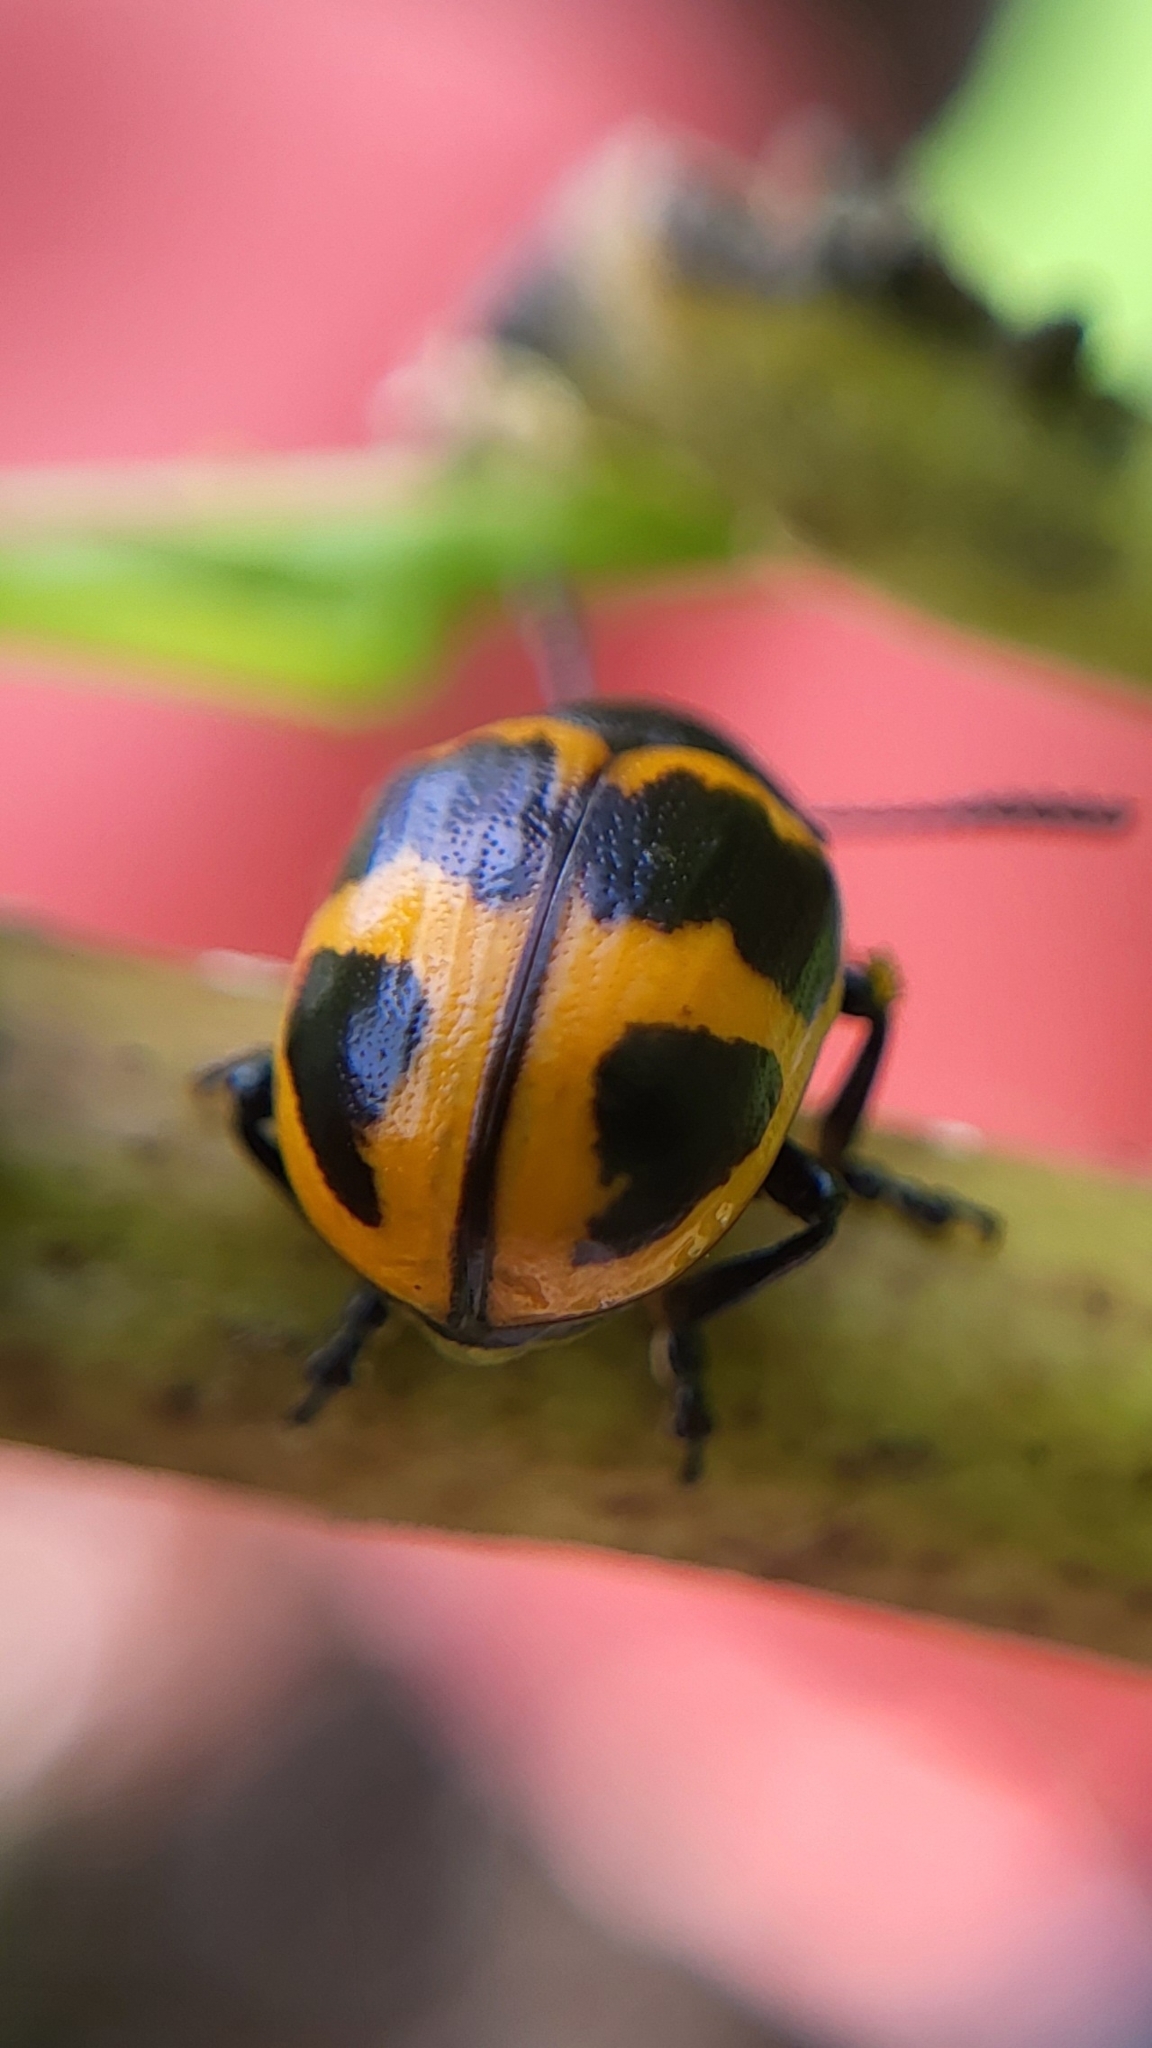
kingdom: Animalia
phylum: Arthropoda
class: Insecta
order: Coleoptera
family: Chrysomelidae
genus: Labidomera
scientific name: Labidomera clivicollis
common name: Swamp milkweed leaf beetle
